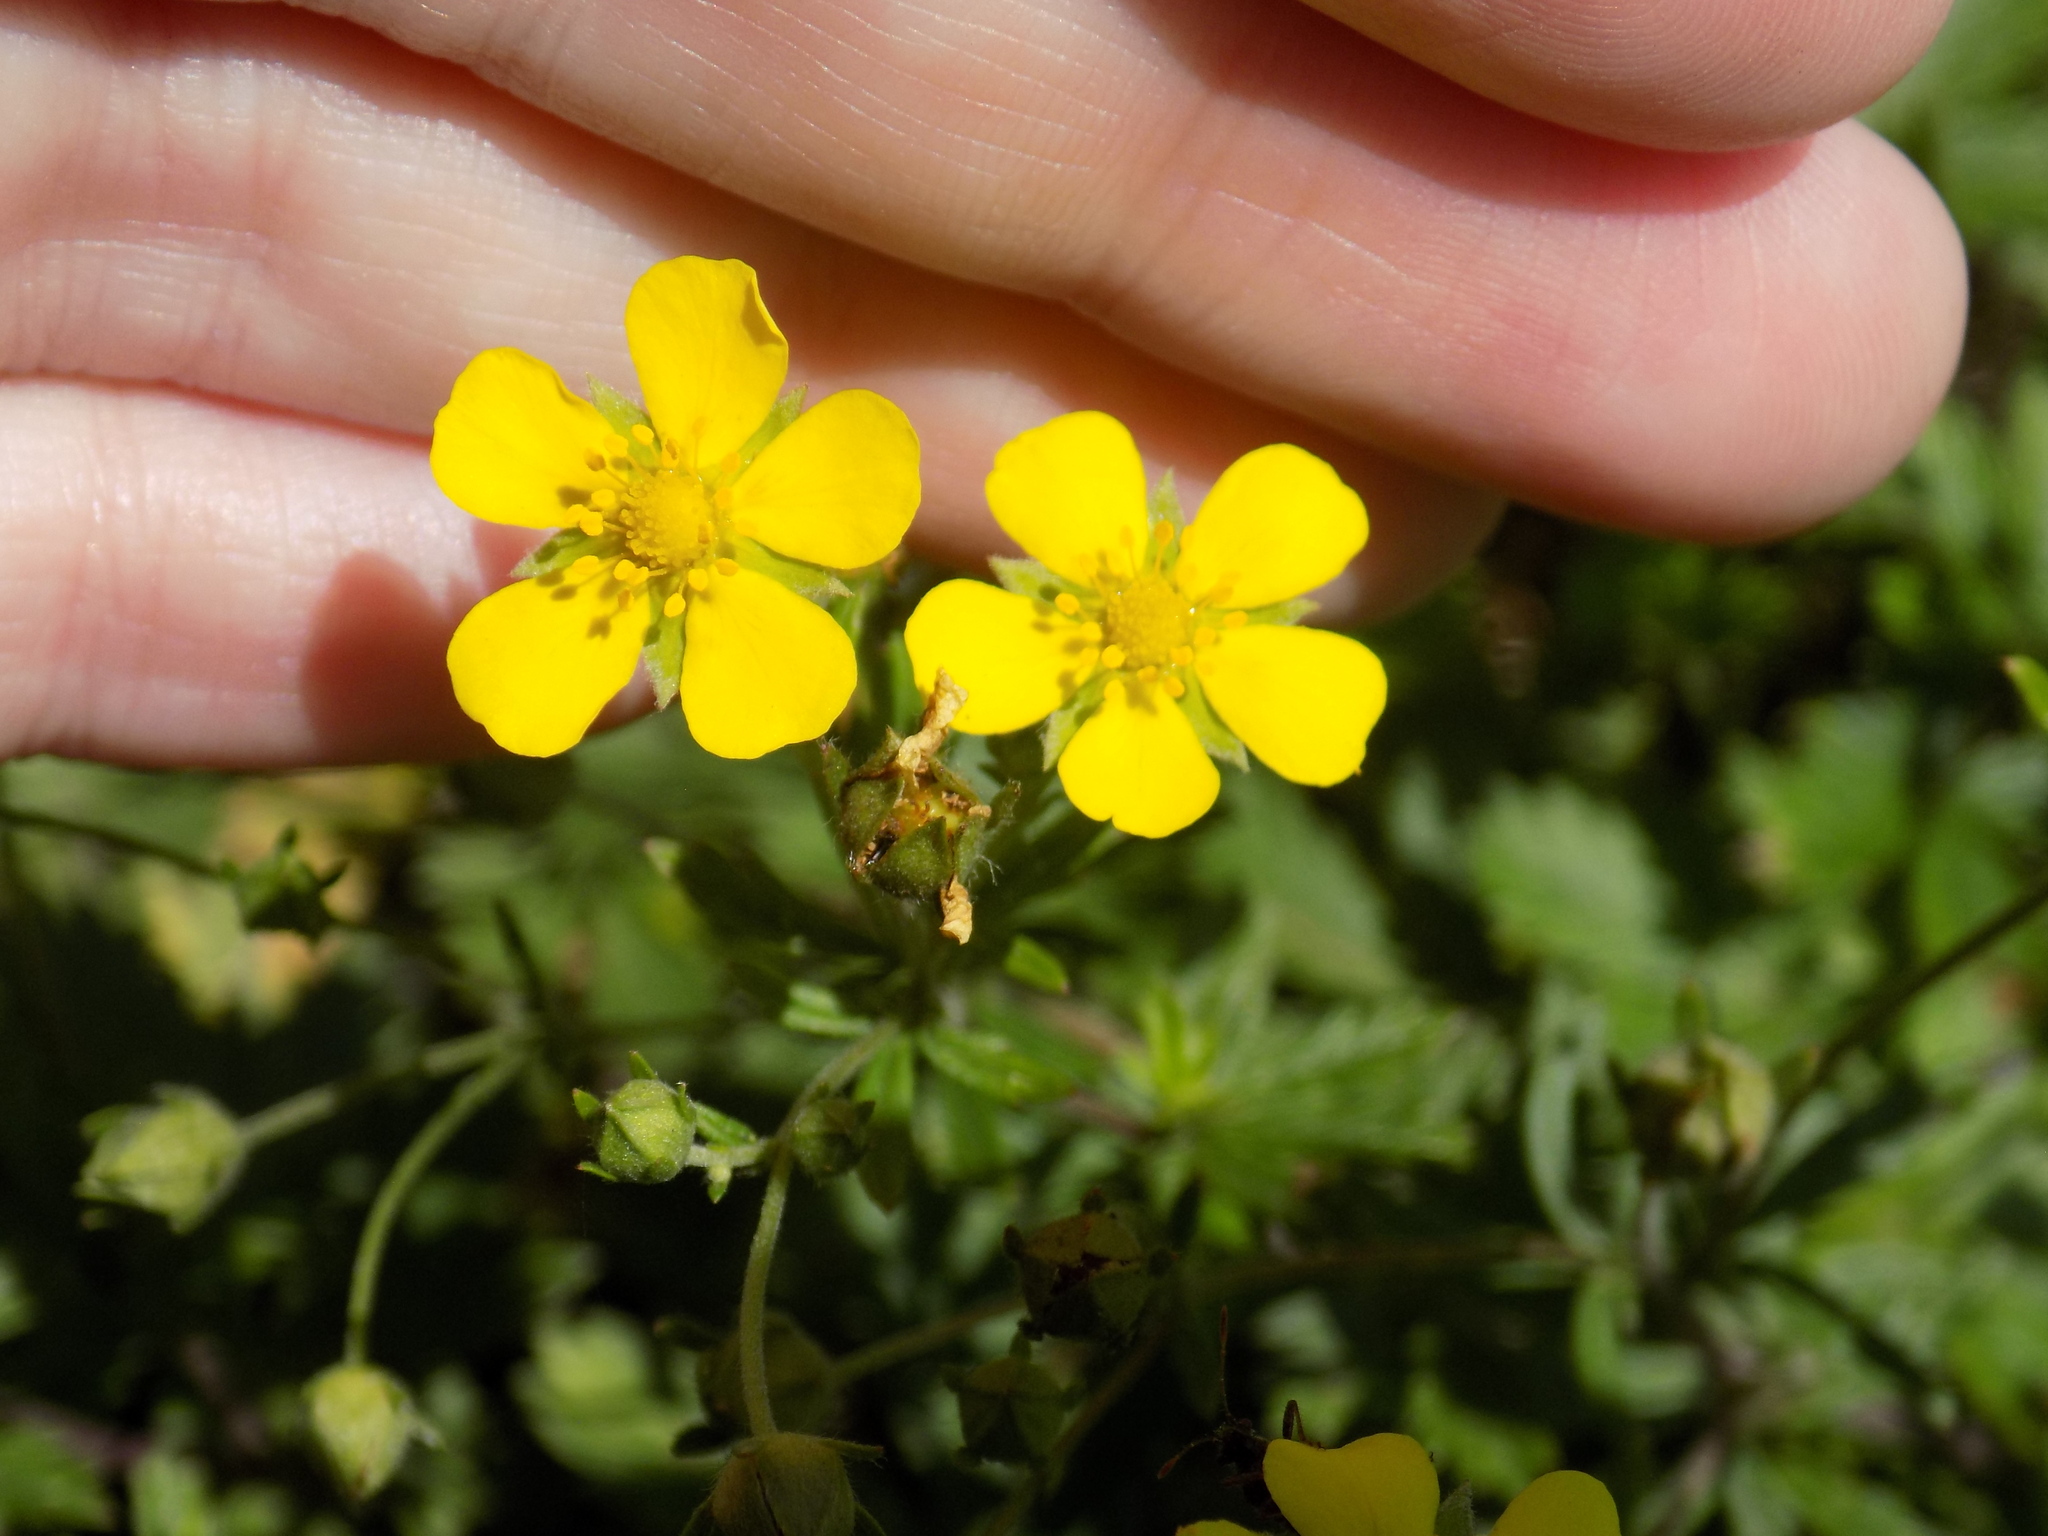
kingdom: Plantae
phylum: Tracheophyta
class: Magnoliopsida
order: Rosales
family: Rosaceae
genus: Potentilla
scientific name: Potentilla argentea
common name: Hoary cinquefoil
